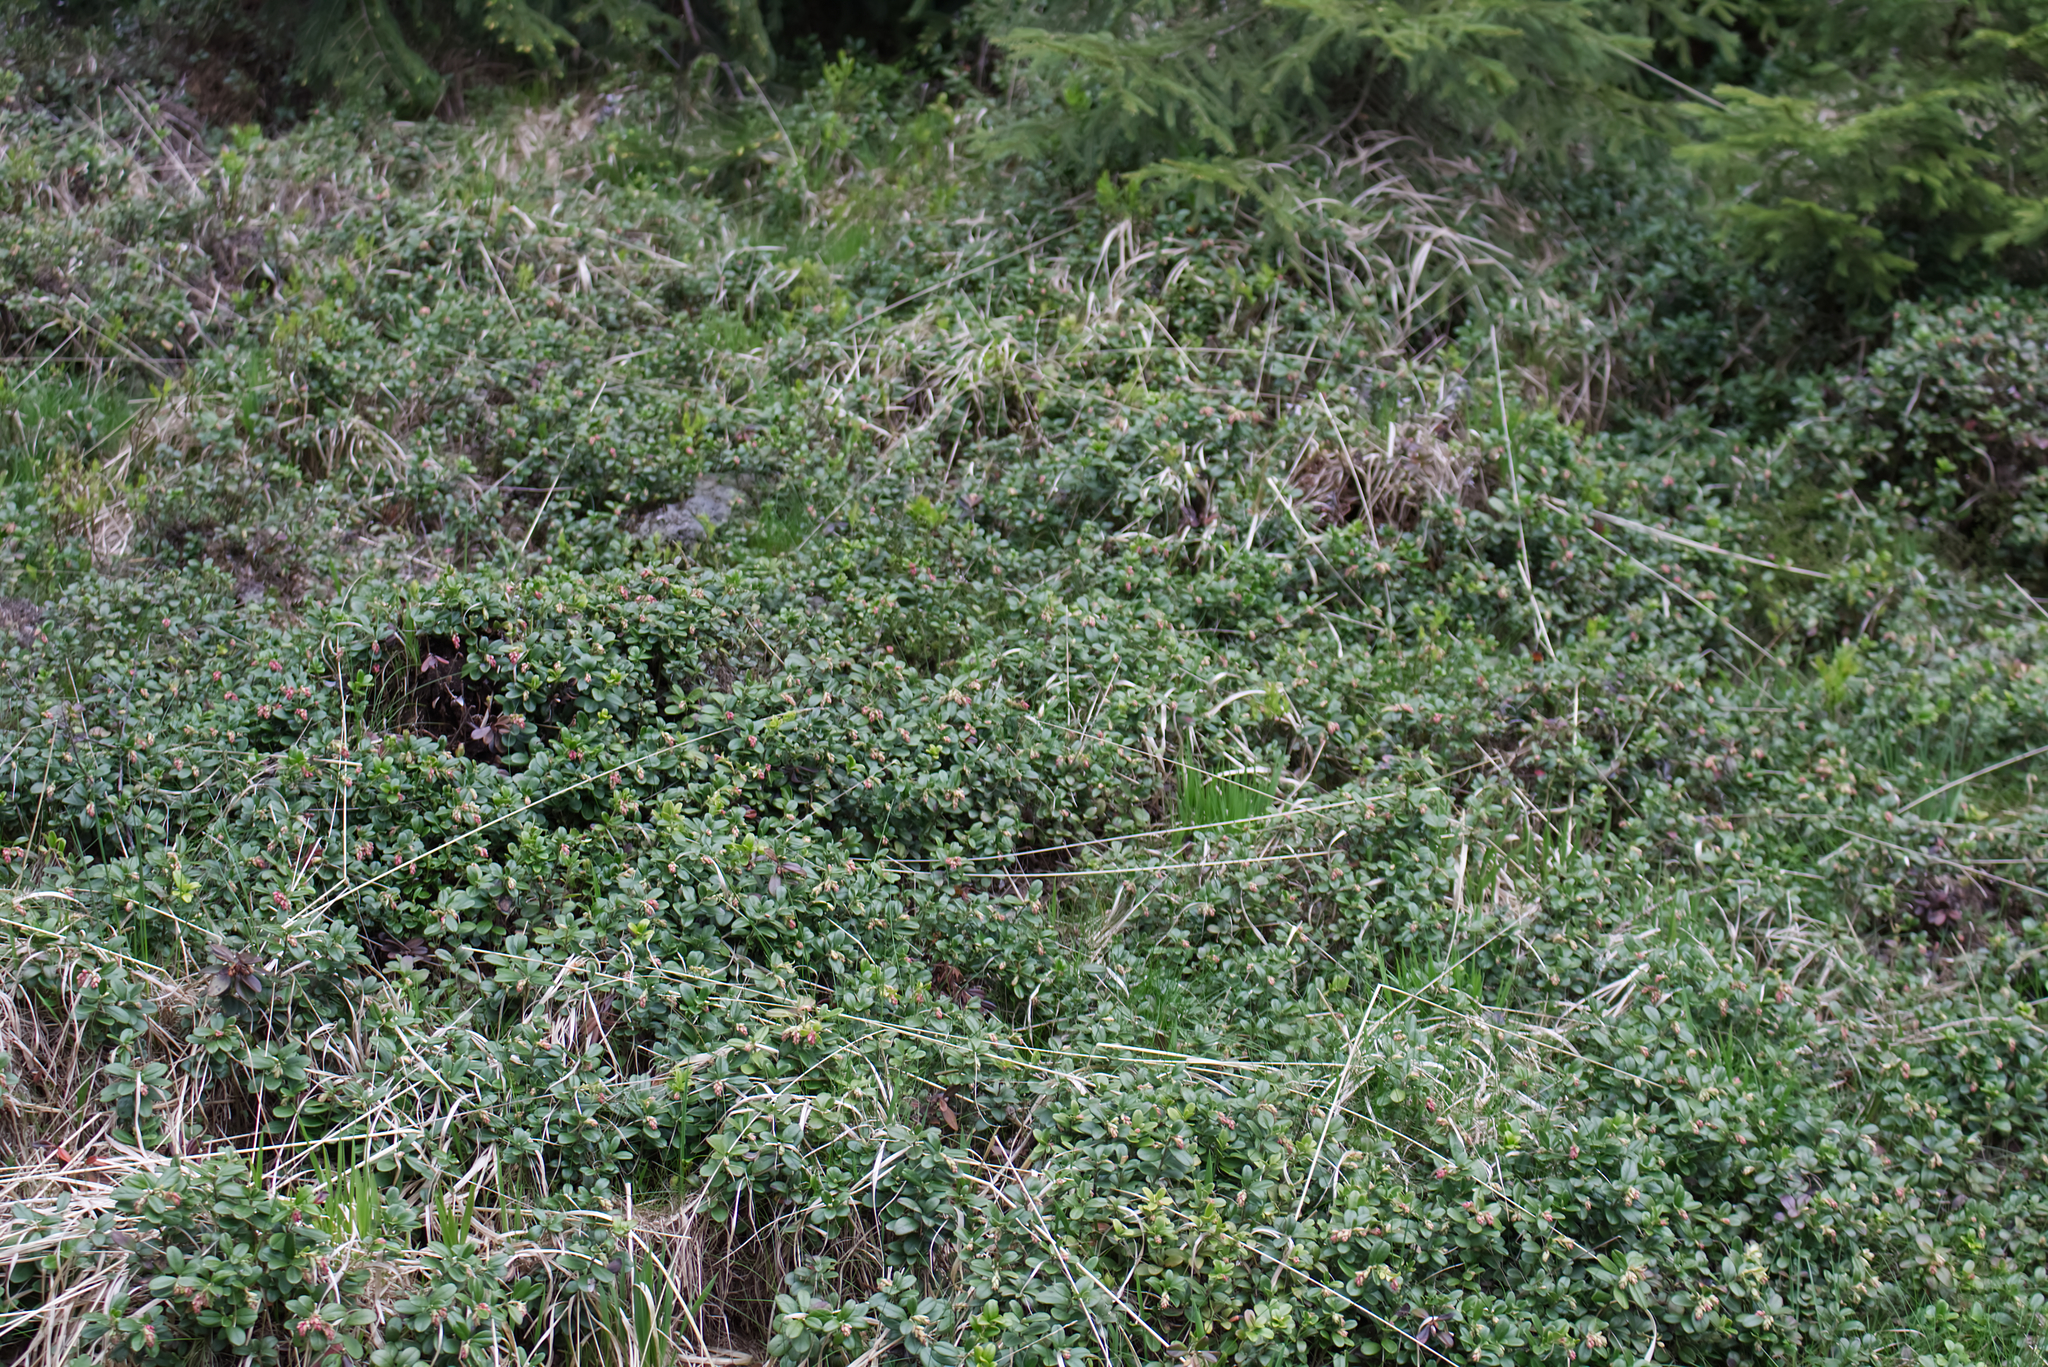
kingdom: Plantae
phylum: Tracheophyta
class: Magnoliopsida
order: Ericales
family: Ericaceae
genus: Vaccinium
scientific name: Vaccinium vitis-idaea
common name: Cowberry
